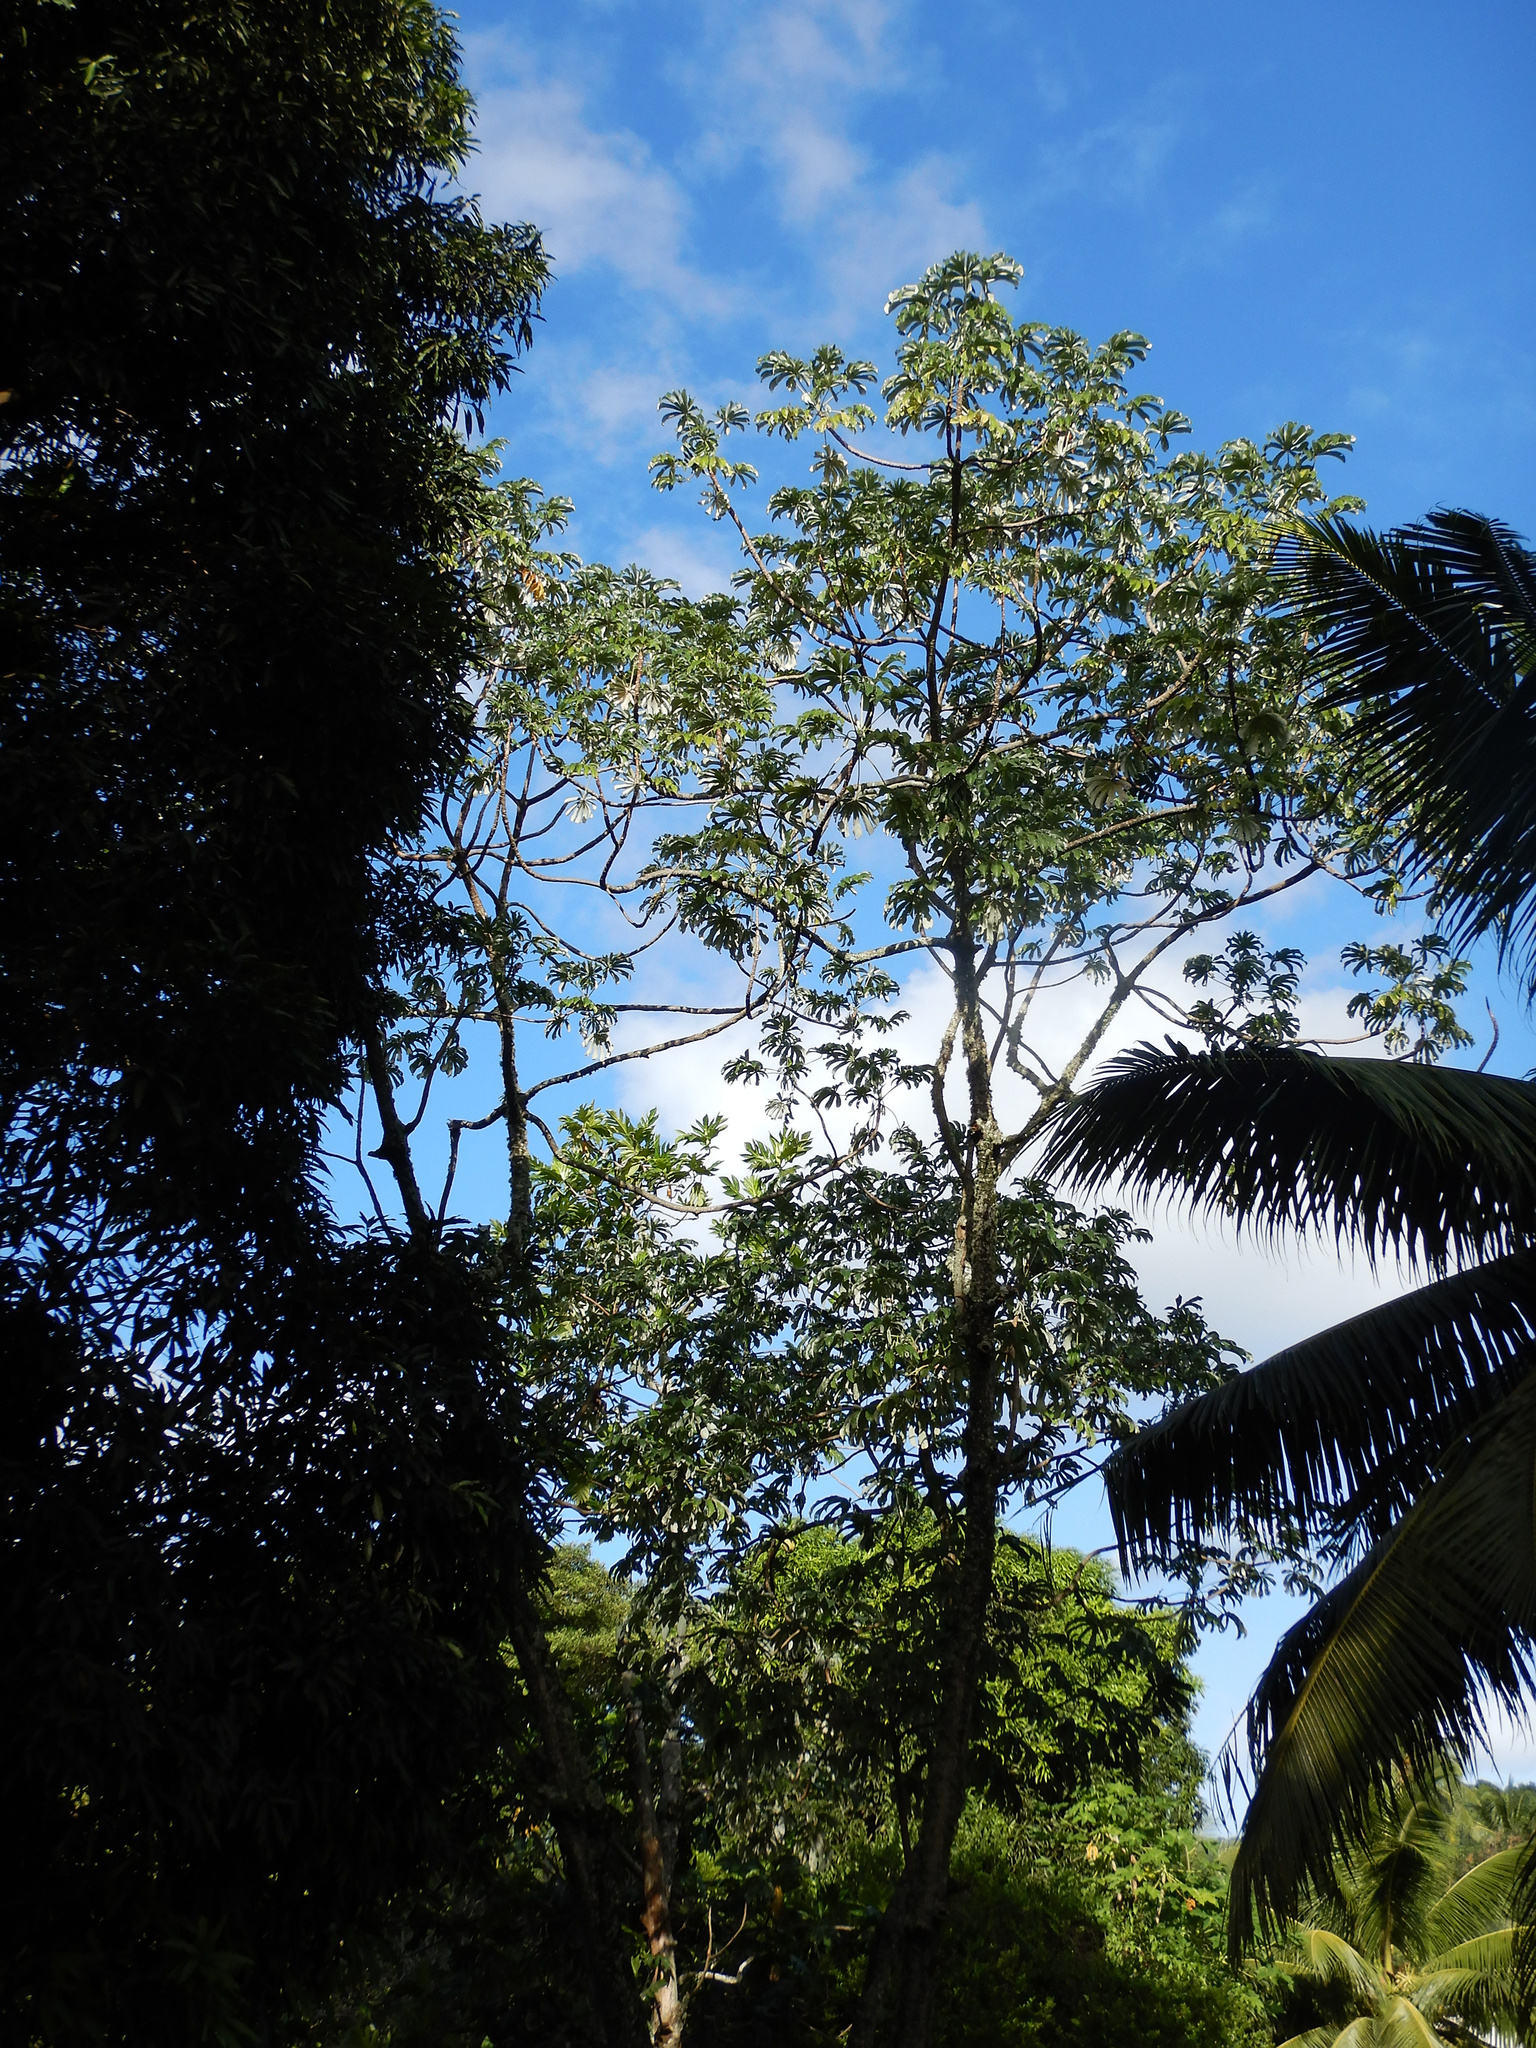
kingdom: Plantae
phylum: Tracheophyta
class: Magnoliopsida
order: Rosales
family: Urticaceae
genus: Cecropia
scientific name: Cecropia pachystachya
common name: Ambay pumpwood
